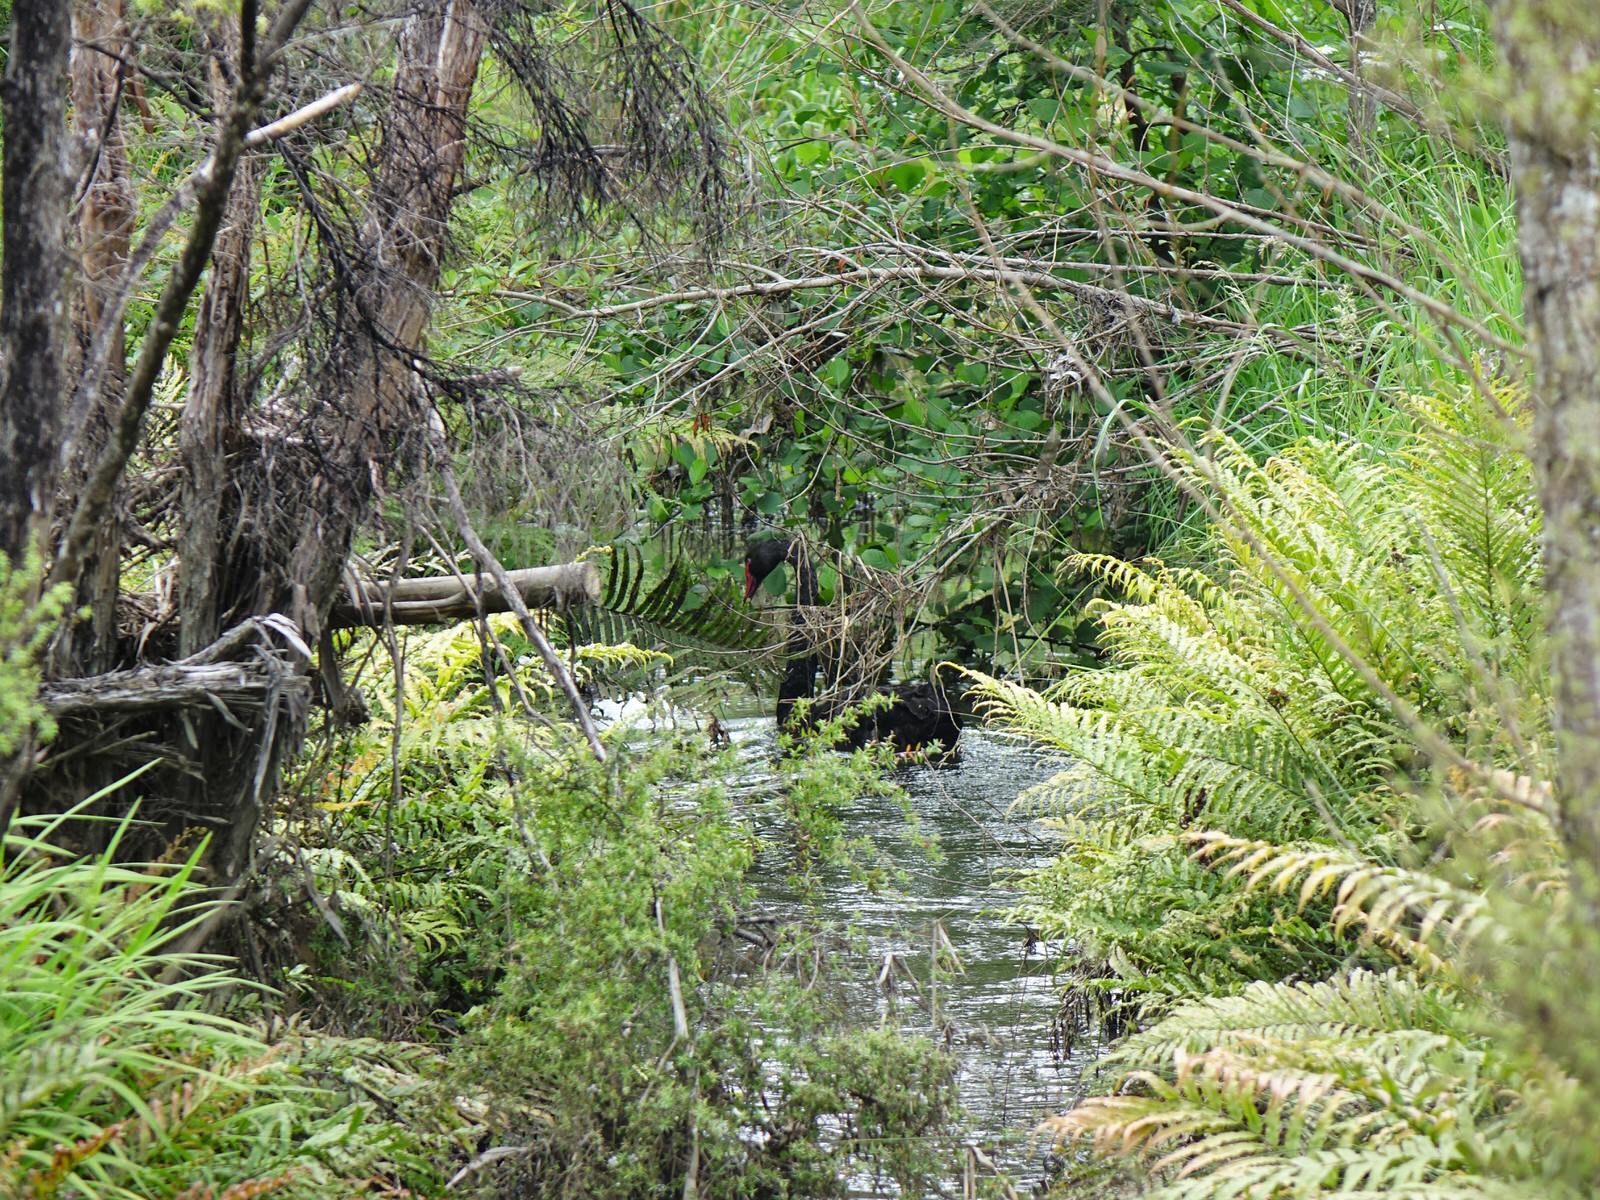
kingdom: Animalia
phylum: Chordata
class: Aves
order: Anseriformes
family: Anatidae
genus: Cygnus
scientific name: Cygnus atratus
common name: Black swan
